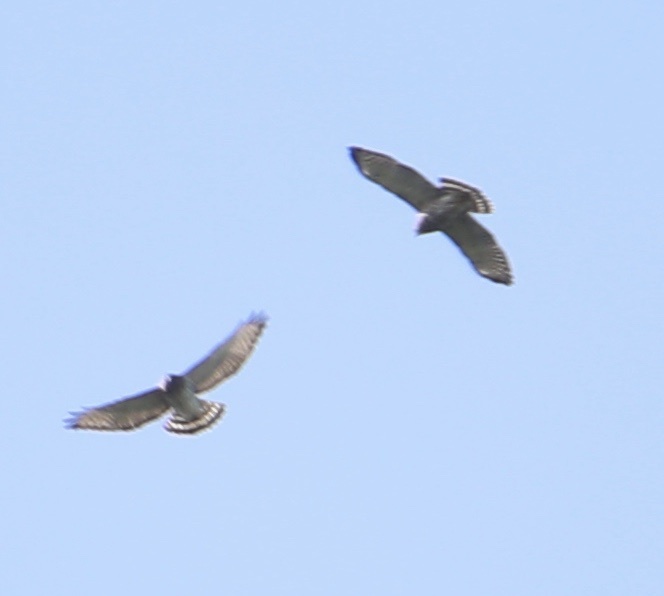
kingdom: Animalia
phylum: Chordata
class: Aves
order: Accipitriformes
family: Accipitridae
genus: Buteo
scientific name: Buteo platypterus
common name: Broad-winged hawk
